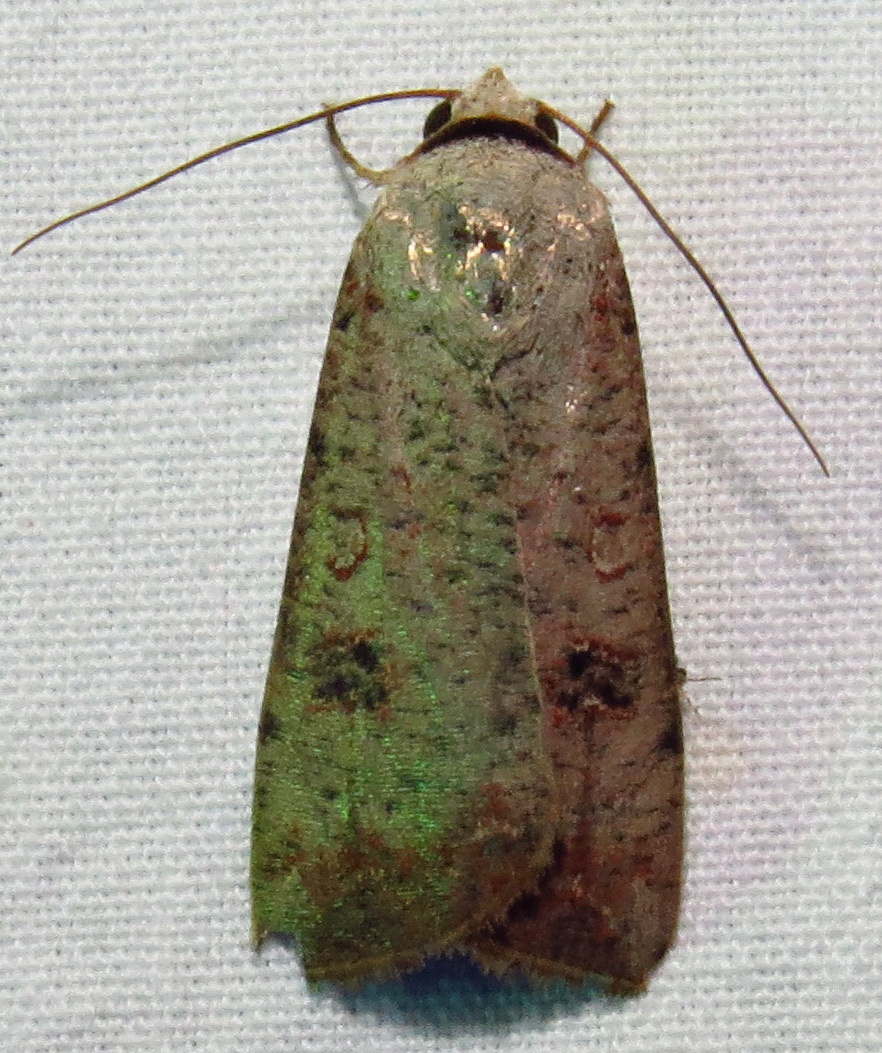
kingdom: Animalia
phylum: Arthropoda
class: Insecta
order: Lepidoptera
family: Noctuidae
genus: Anicla
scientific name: Anicla infecta
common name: Green cutworm
